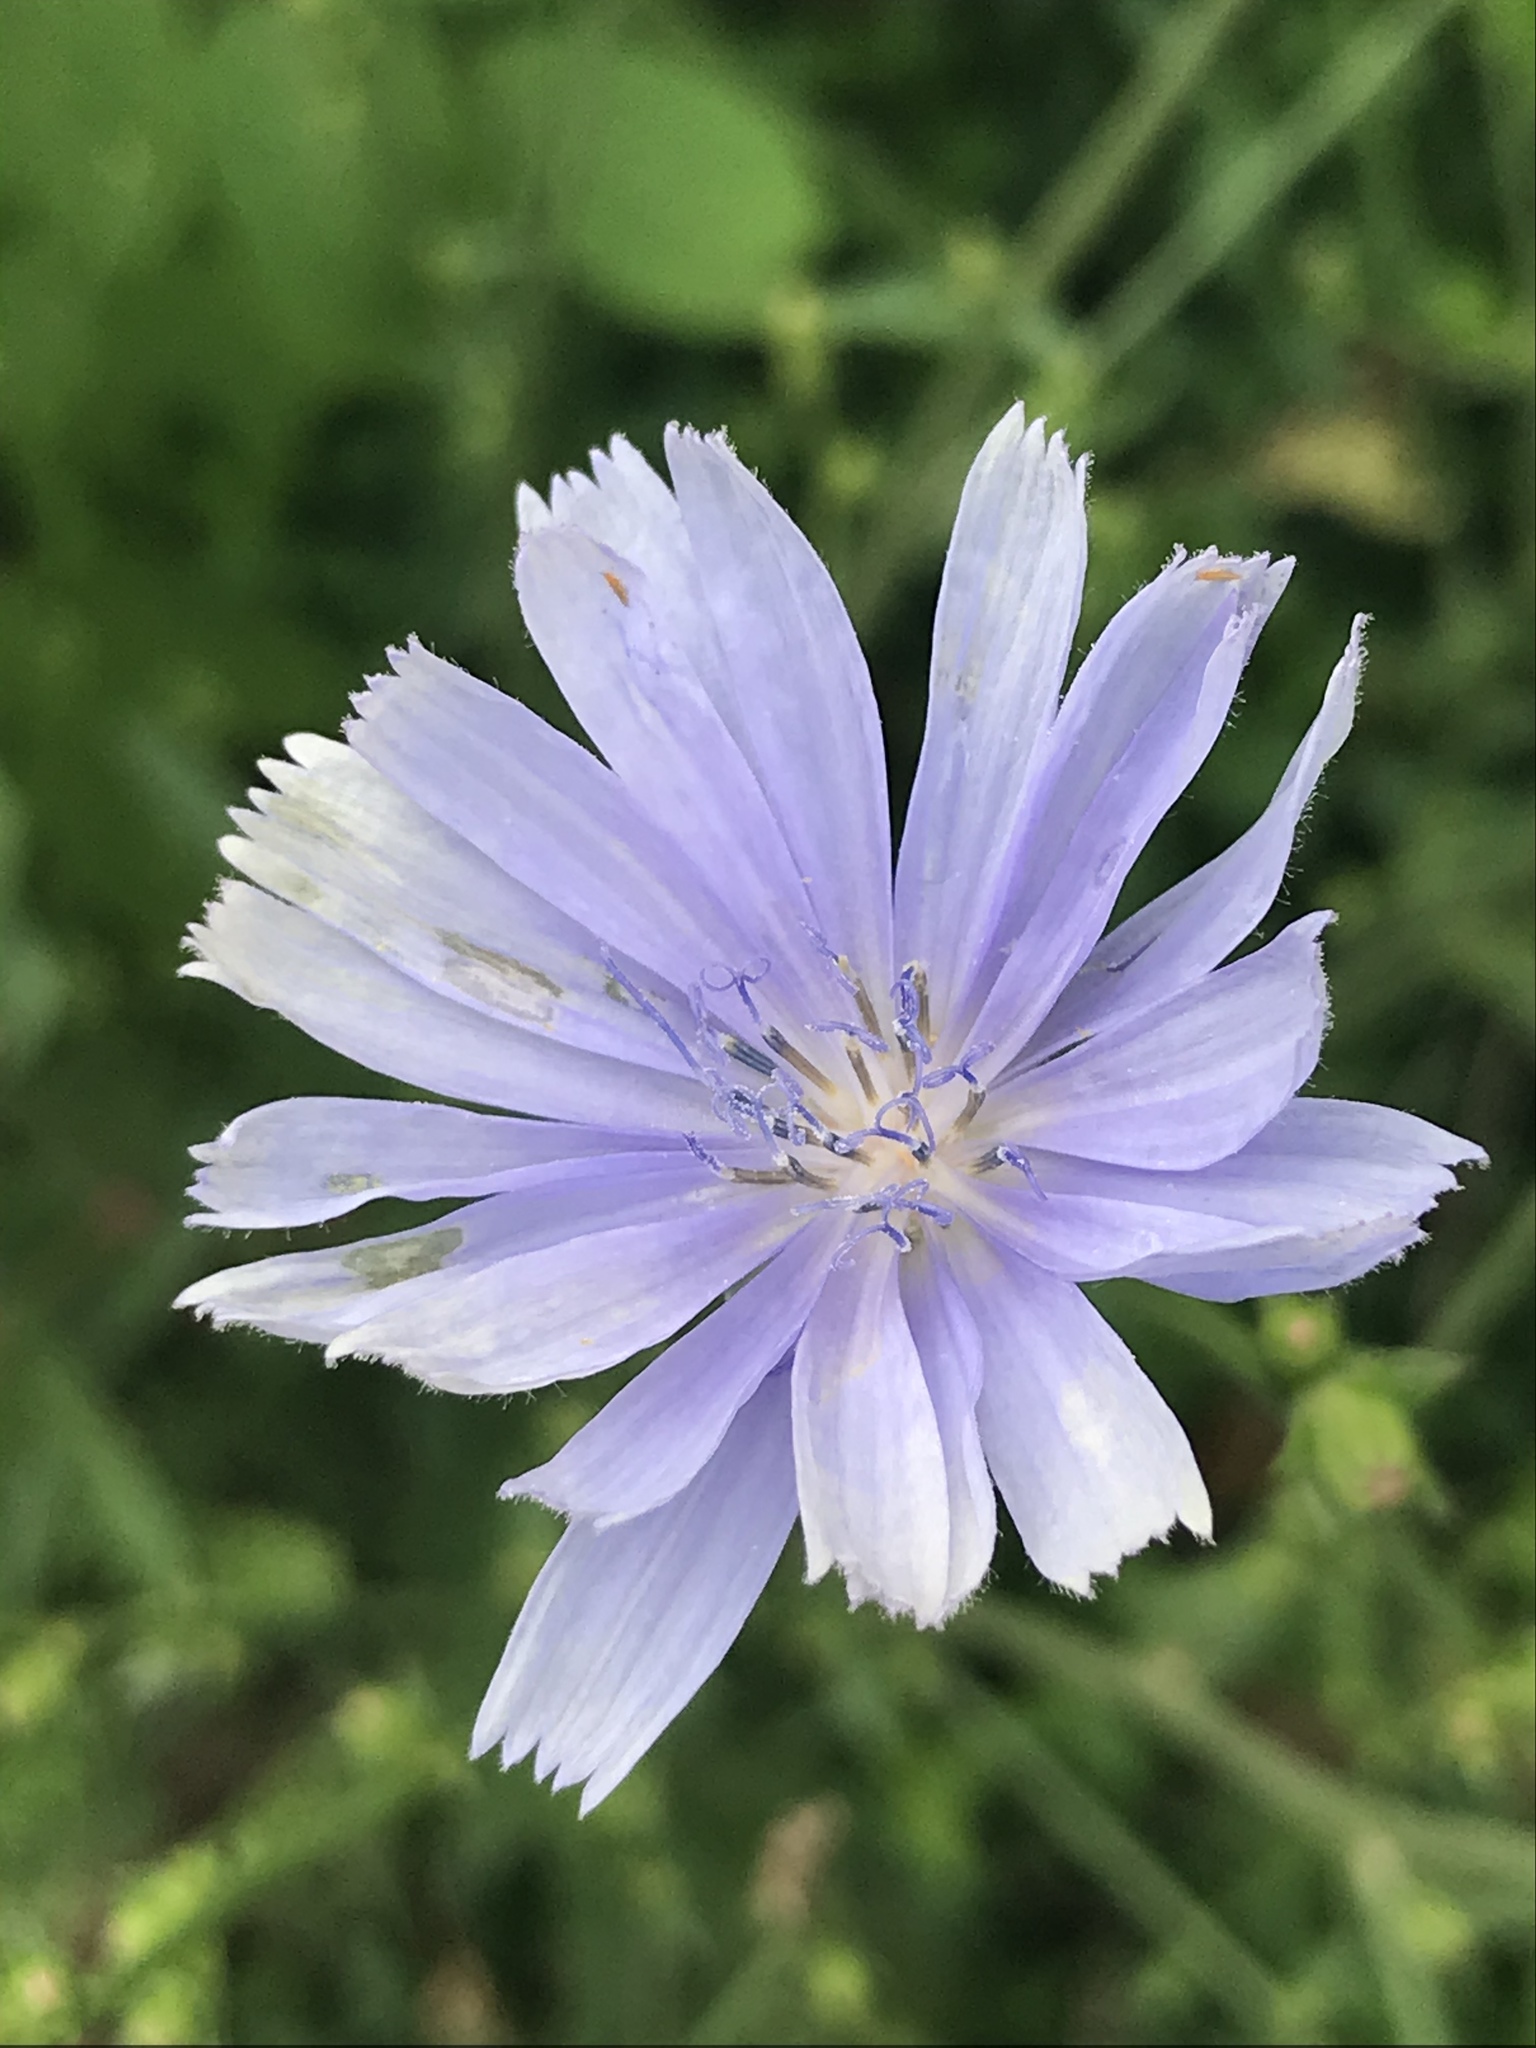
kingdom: Plantae
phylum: Tracheophyta
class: Magnoliopsida
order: Asterales
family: Asteraceae
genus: Cichorium
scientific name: Cichorium intybus
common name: Chicory
